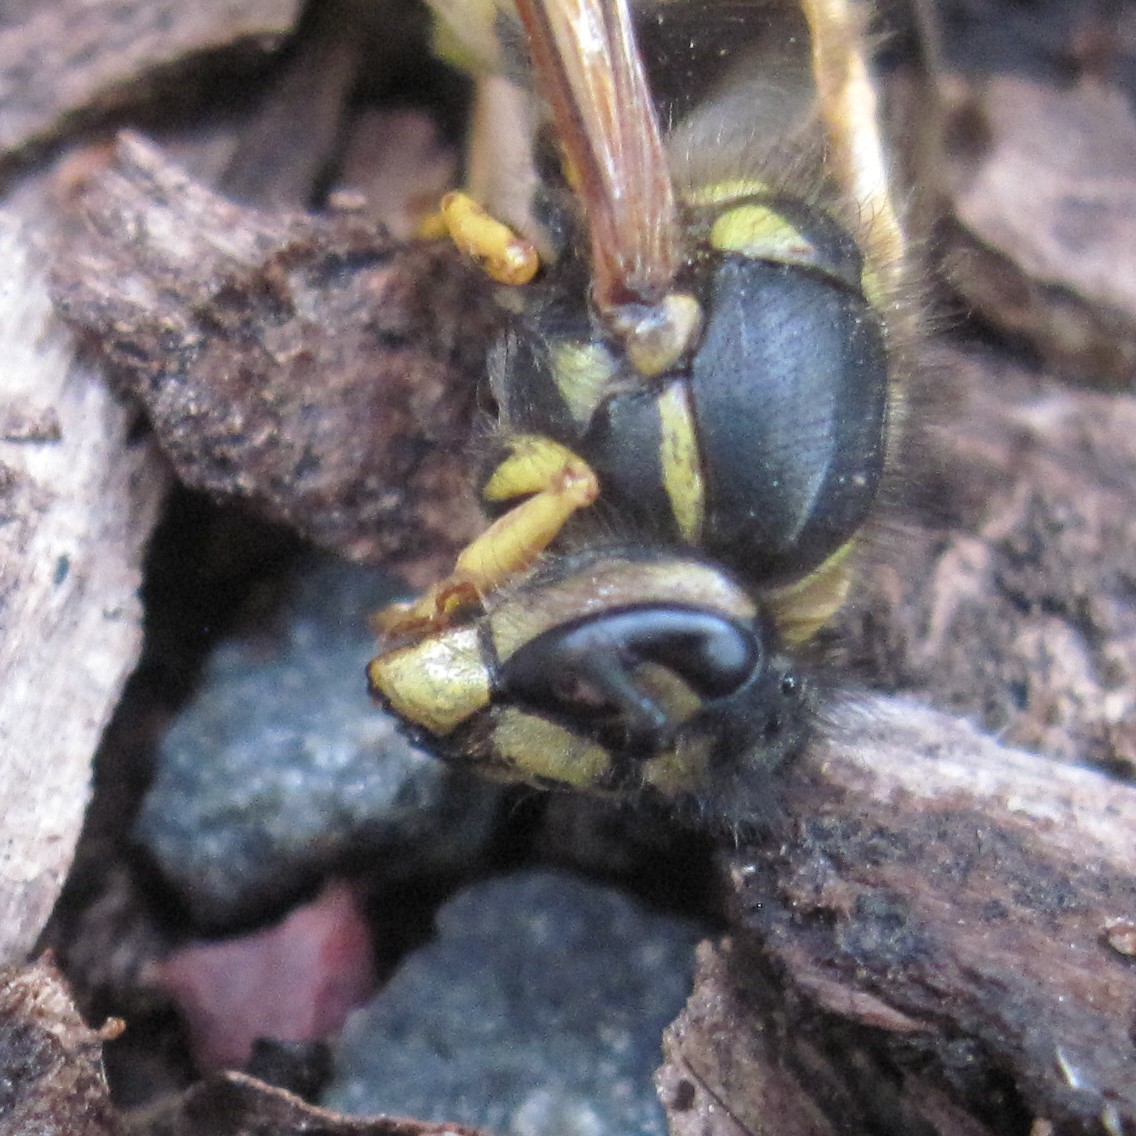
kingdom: Animalia
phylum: Arthropoda
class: Insecta
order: Hymenoptera
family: Vespidae
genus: Vespula
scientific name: Vespula germanica
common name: German wasp
